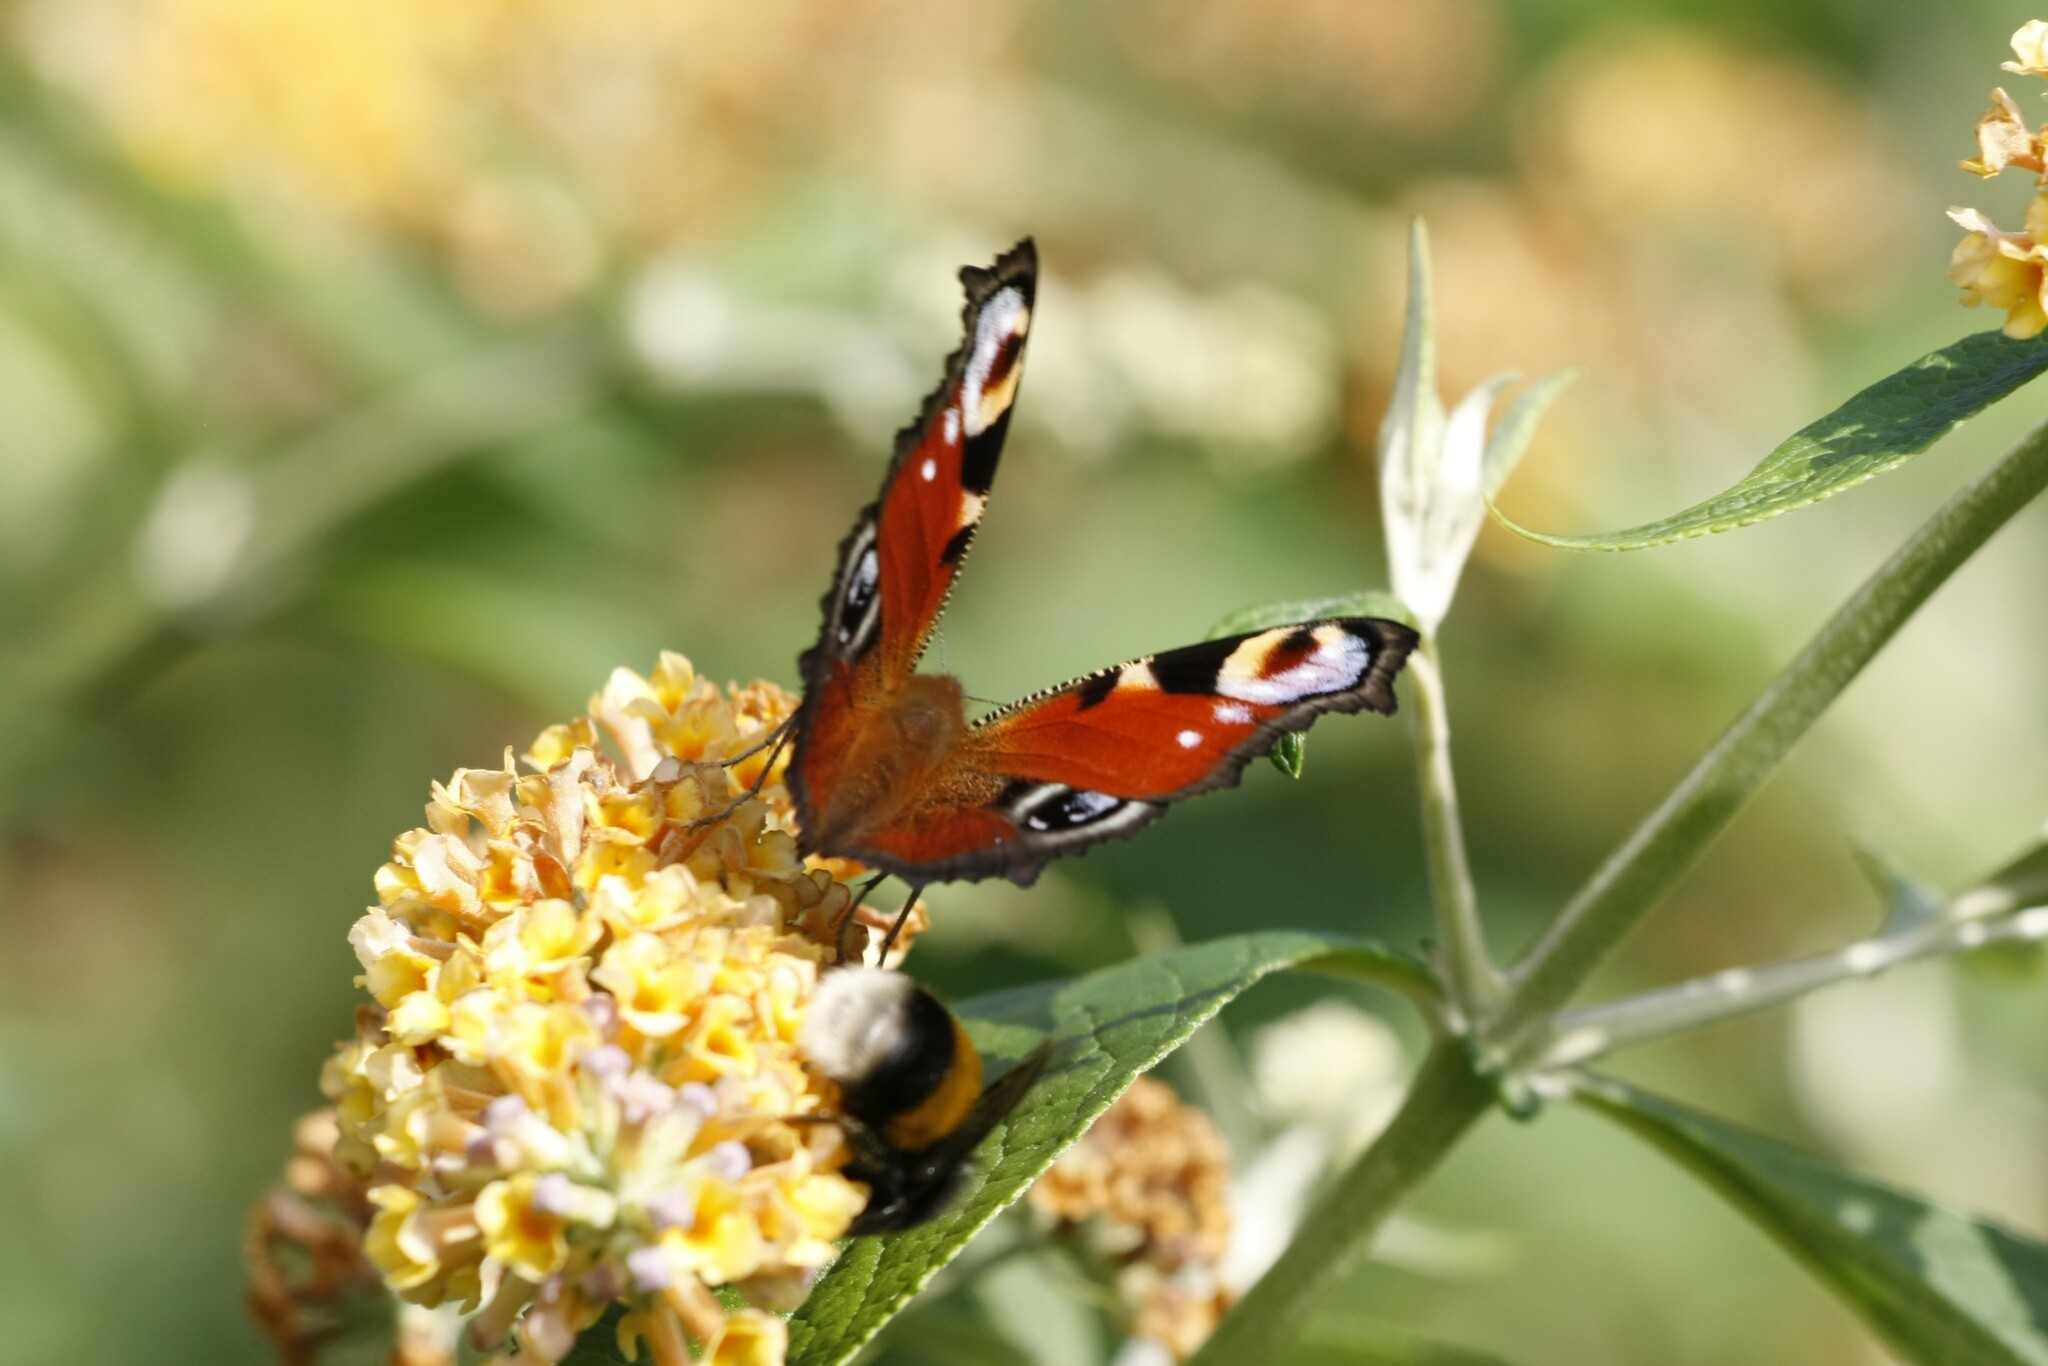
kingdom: Animalia
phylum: Arthropoda
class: Insecta
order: Lepidoptera
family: Nymphalidae
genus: Aglais
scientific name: Aglais io
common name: Peacock
